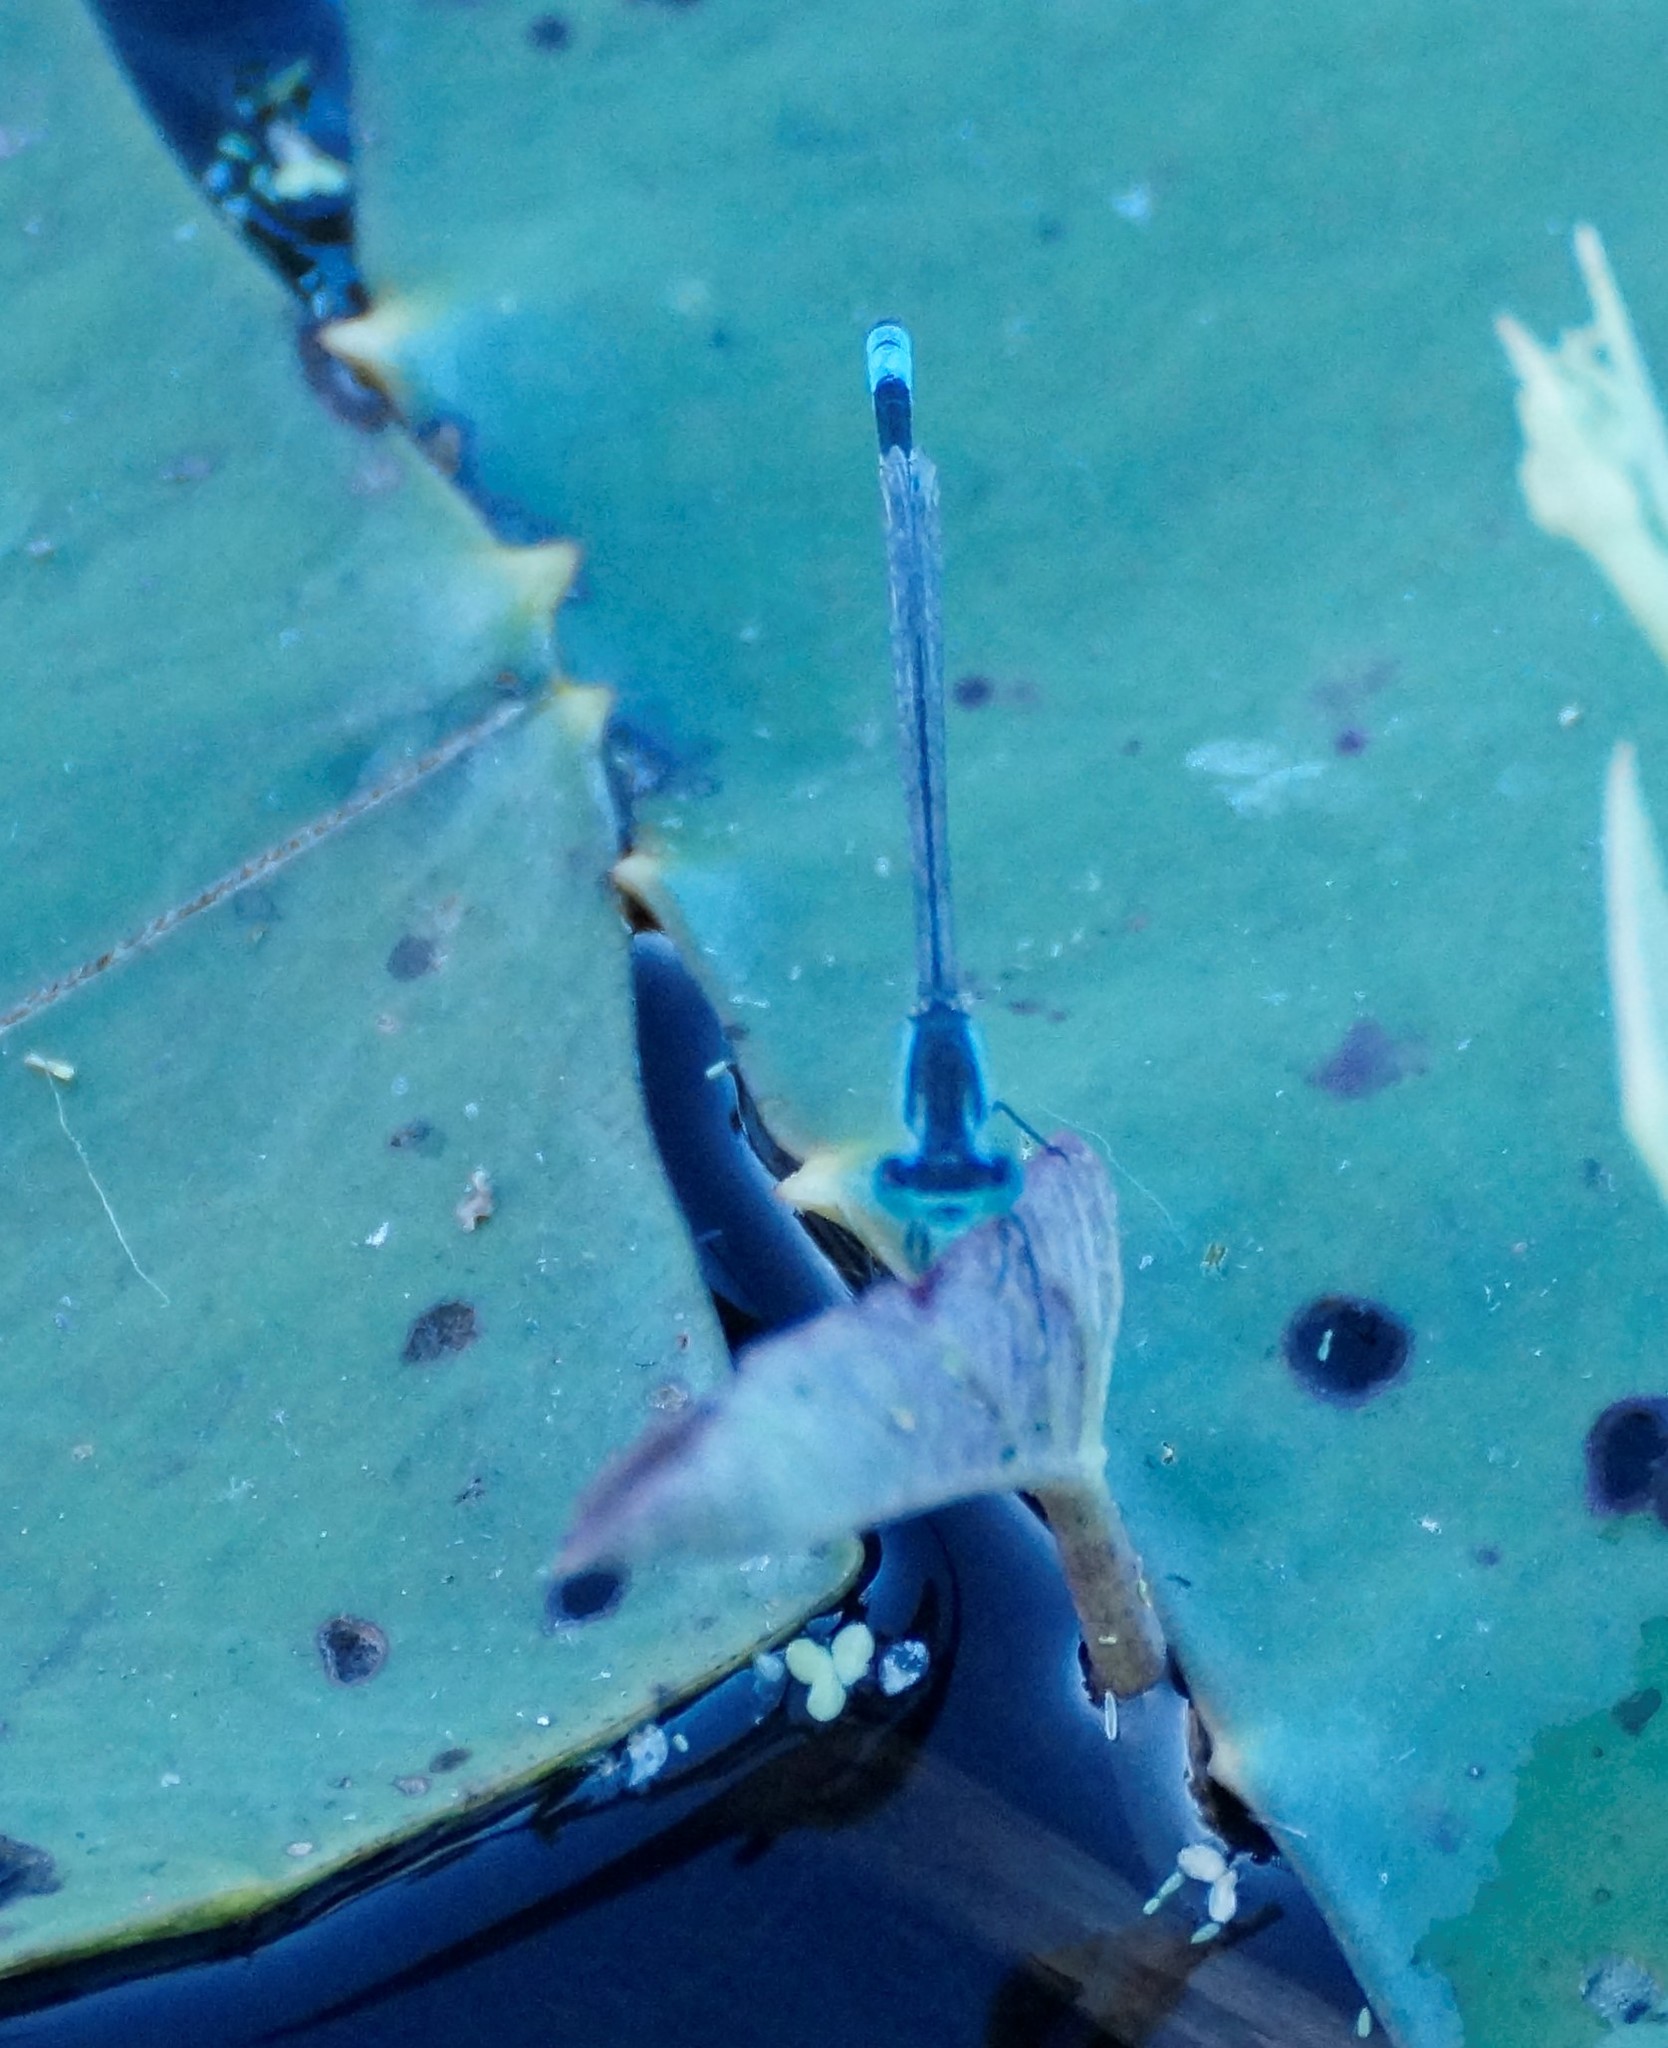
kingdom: Animalia
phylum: Arthropoda
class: Insecta
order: Odonata
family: Coenagrionidae
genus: Ischnura
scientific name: Ischnura heterosticta
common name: Common bluetail
